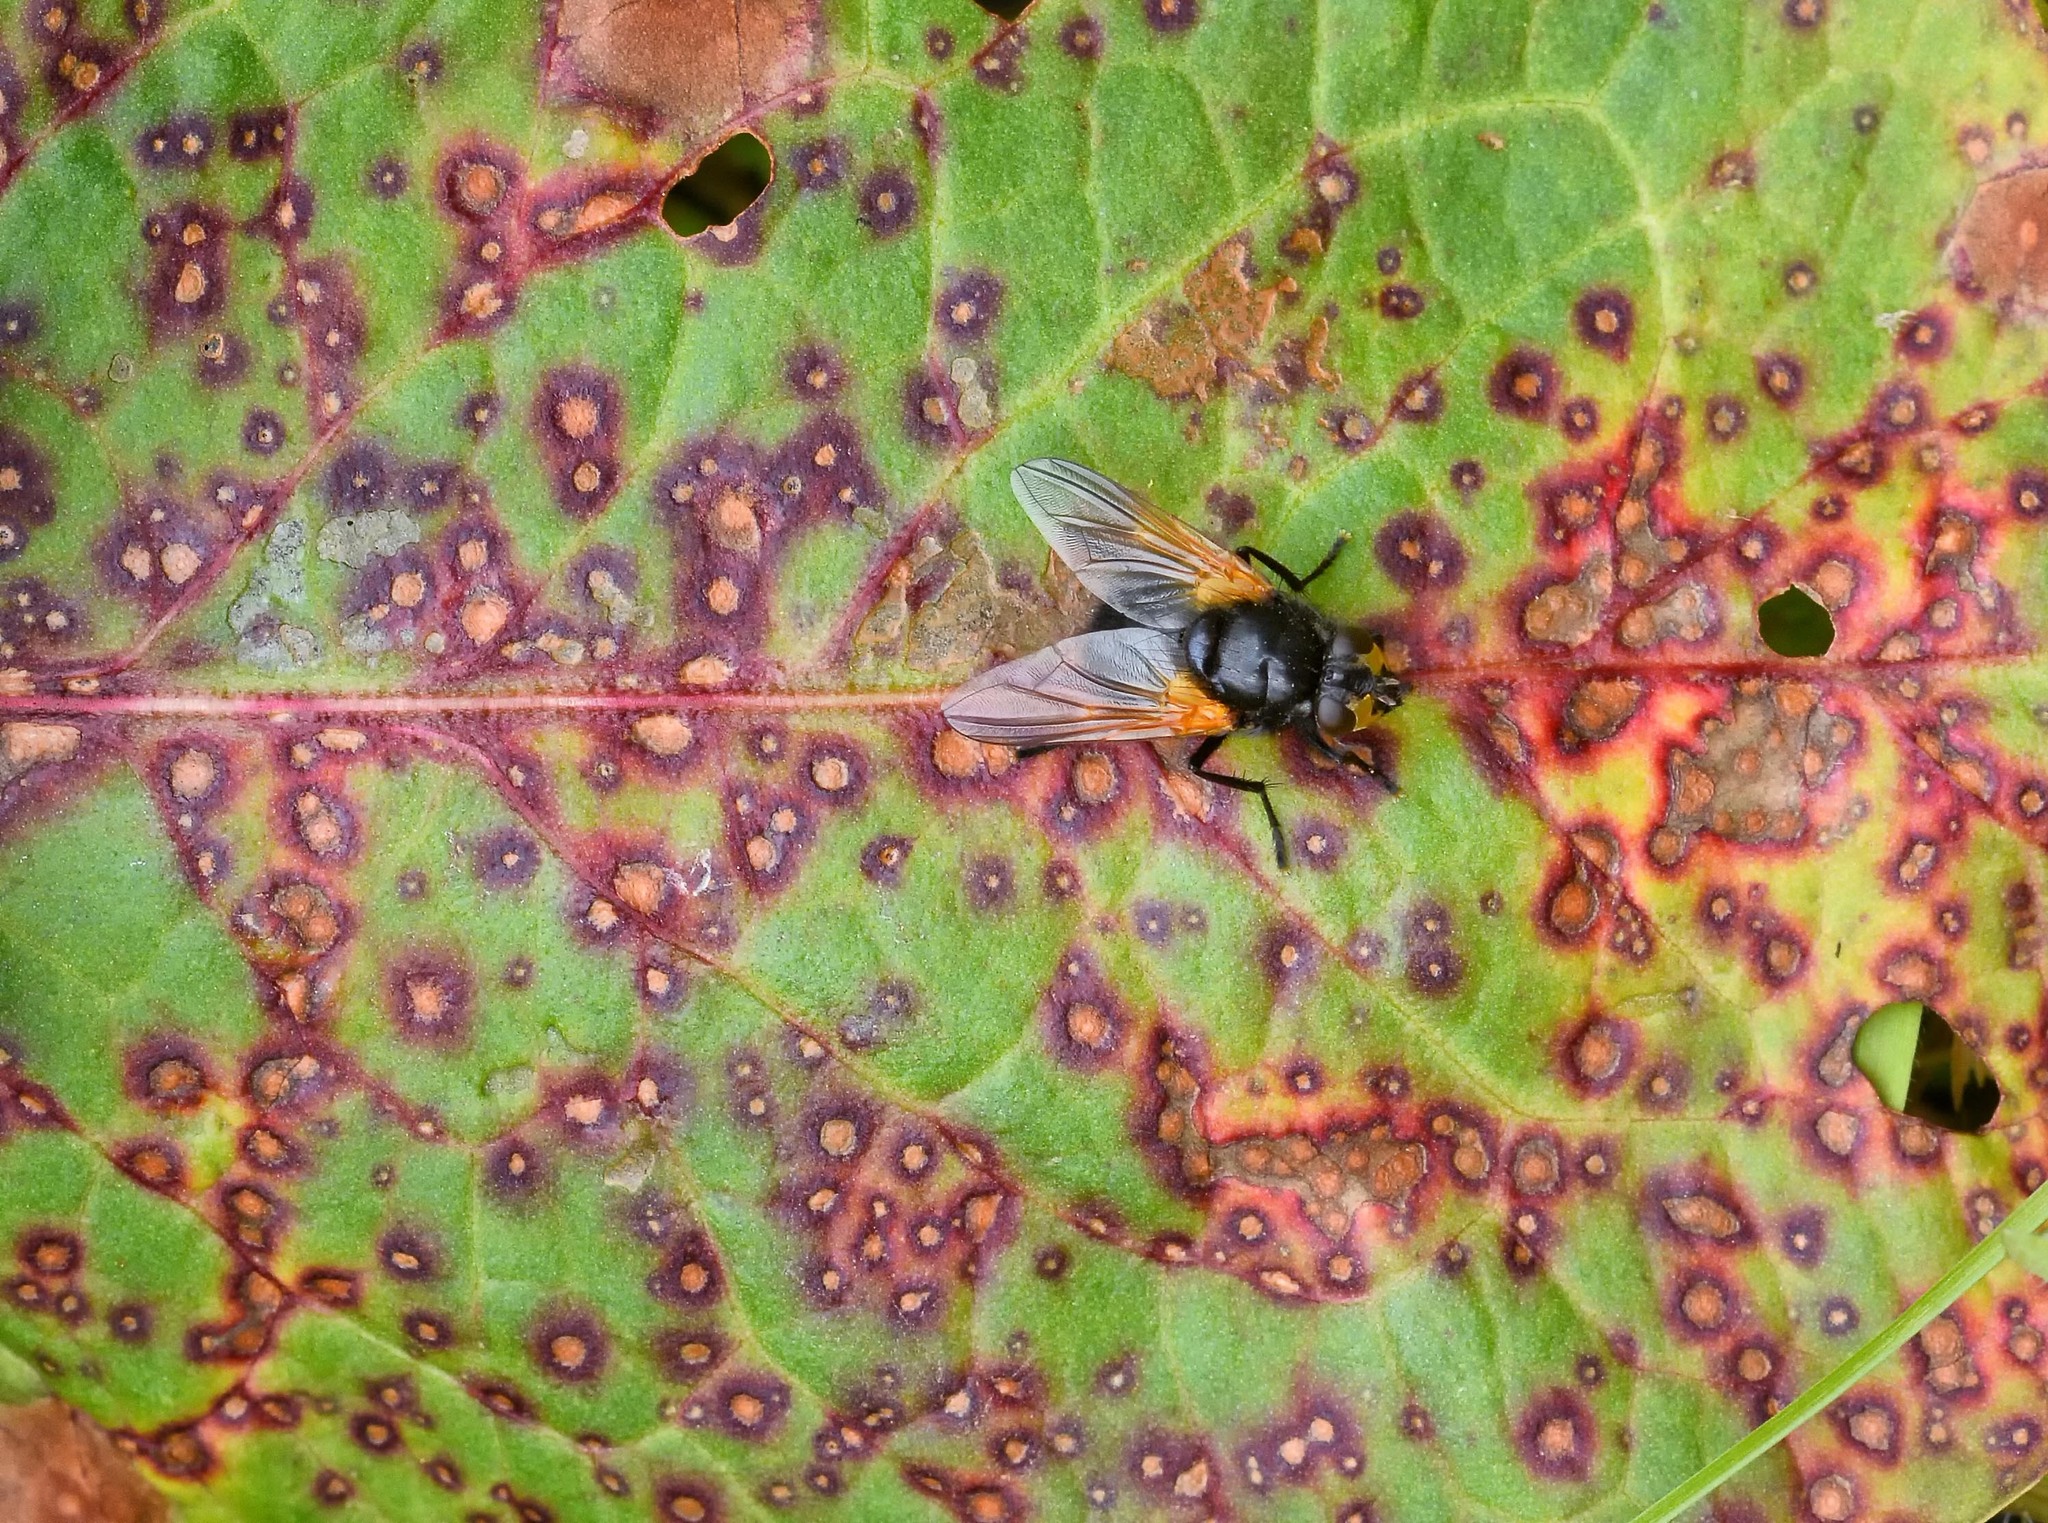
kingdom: Animalia
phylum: Arthropoda
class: Insecta
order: Diptera
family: Muscidae
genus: Mesembrina
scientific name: Mesembrina meridiana
